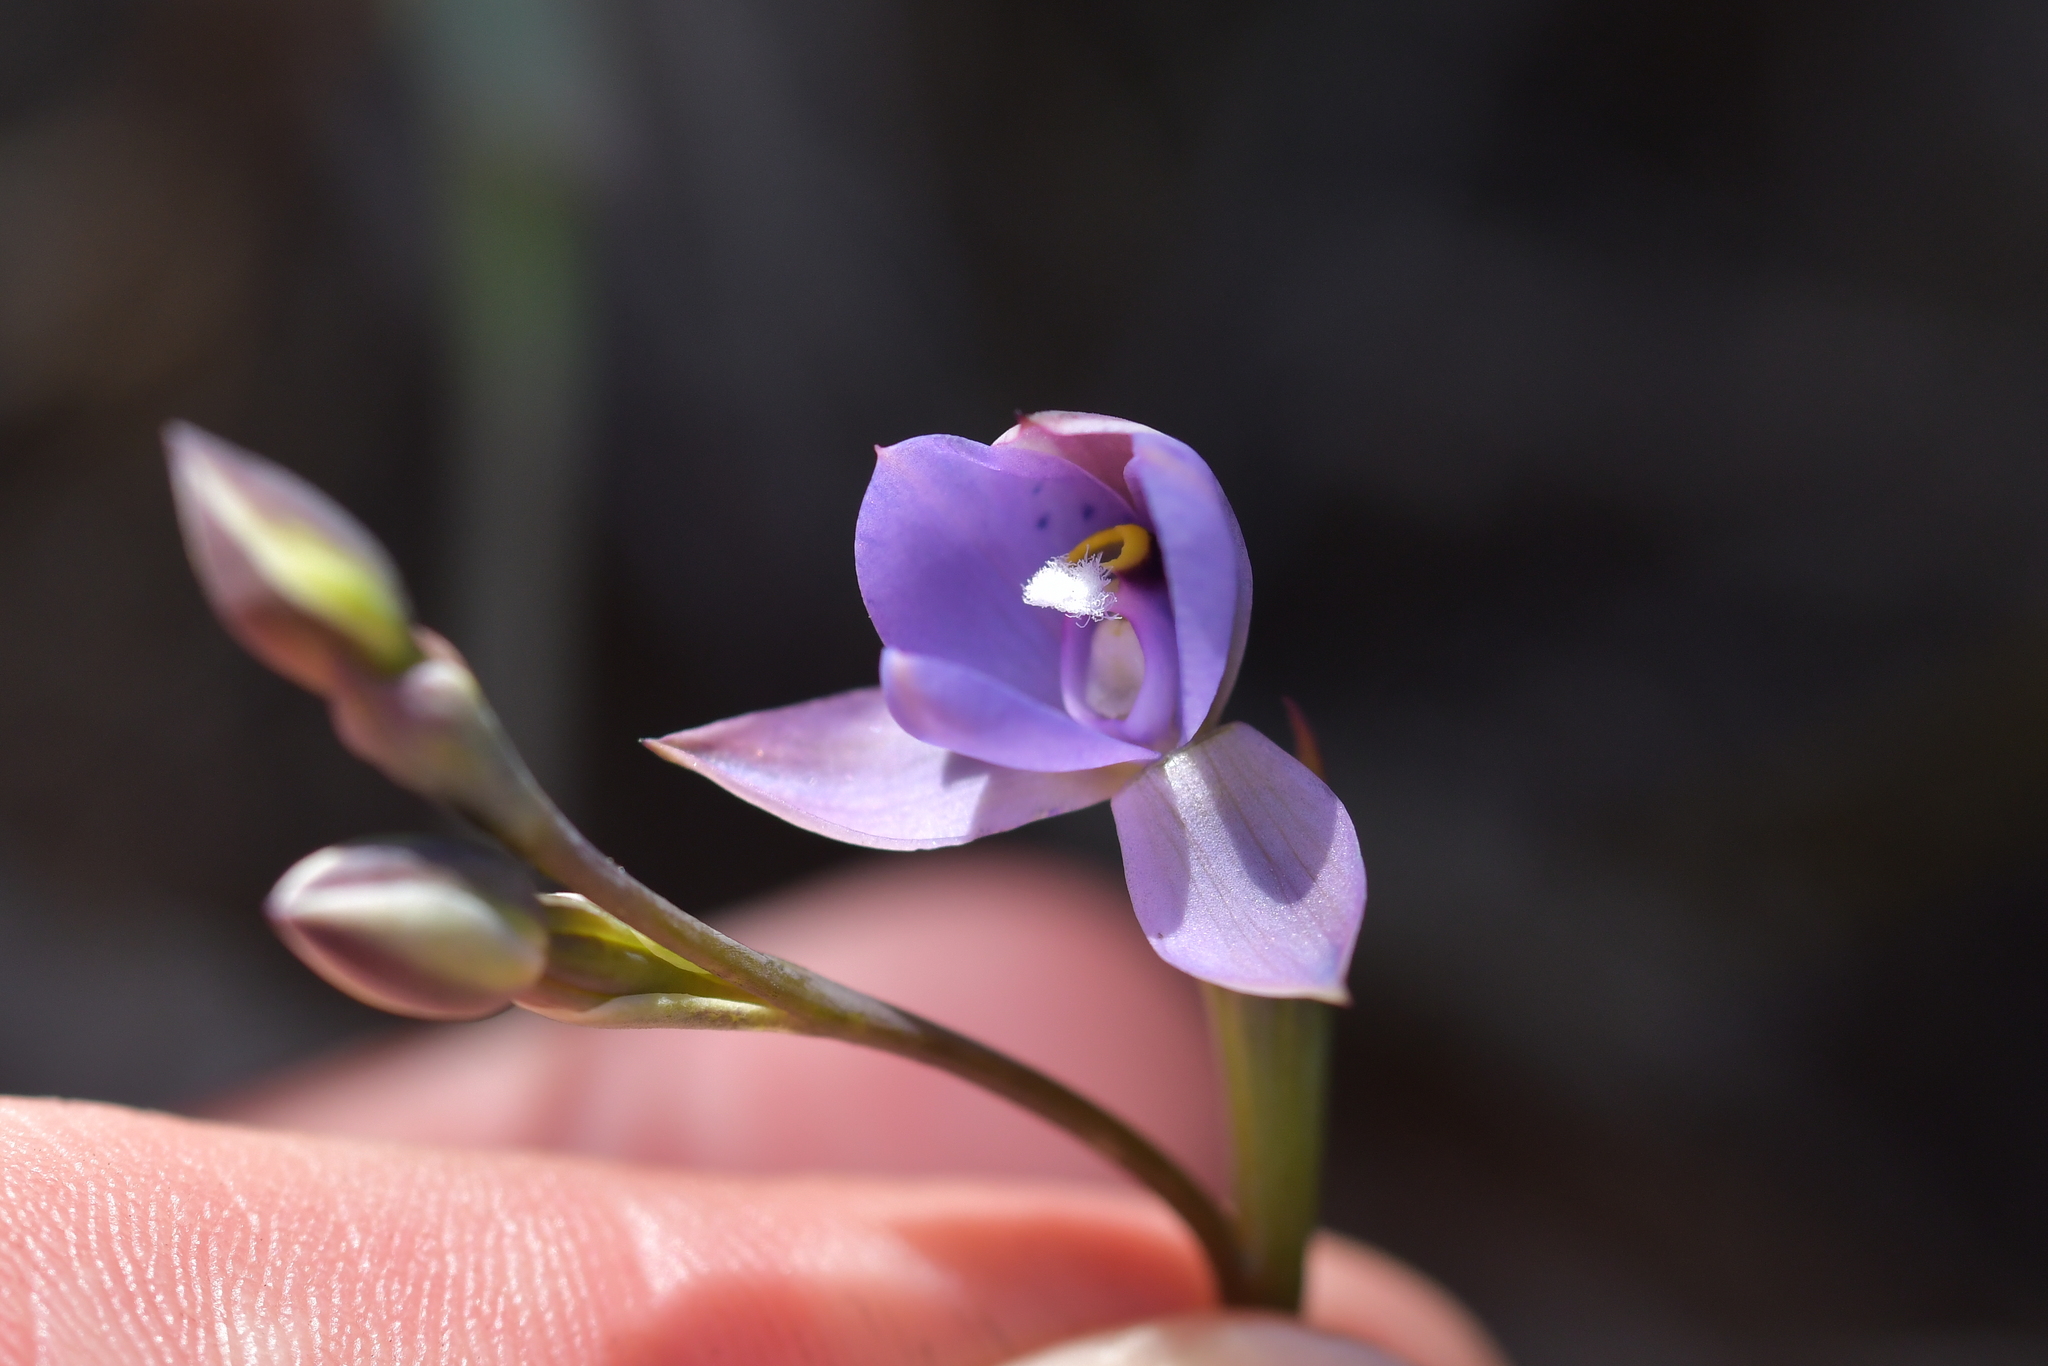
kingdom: Plantae
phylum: Tracheophyta
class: Liliopsida
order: Asparagales
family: Orchidaceae
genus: Thelymitra
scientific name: Thelymitra nervosa
